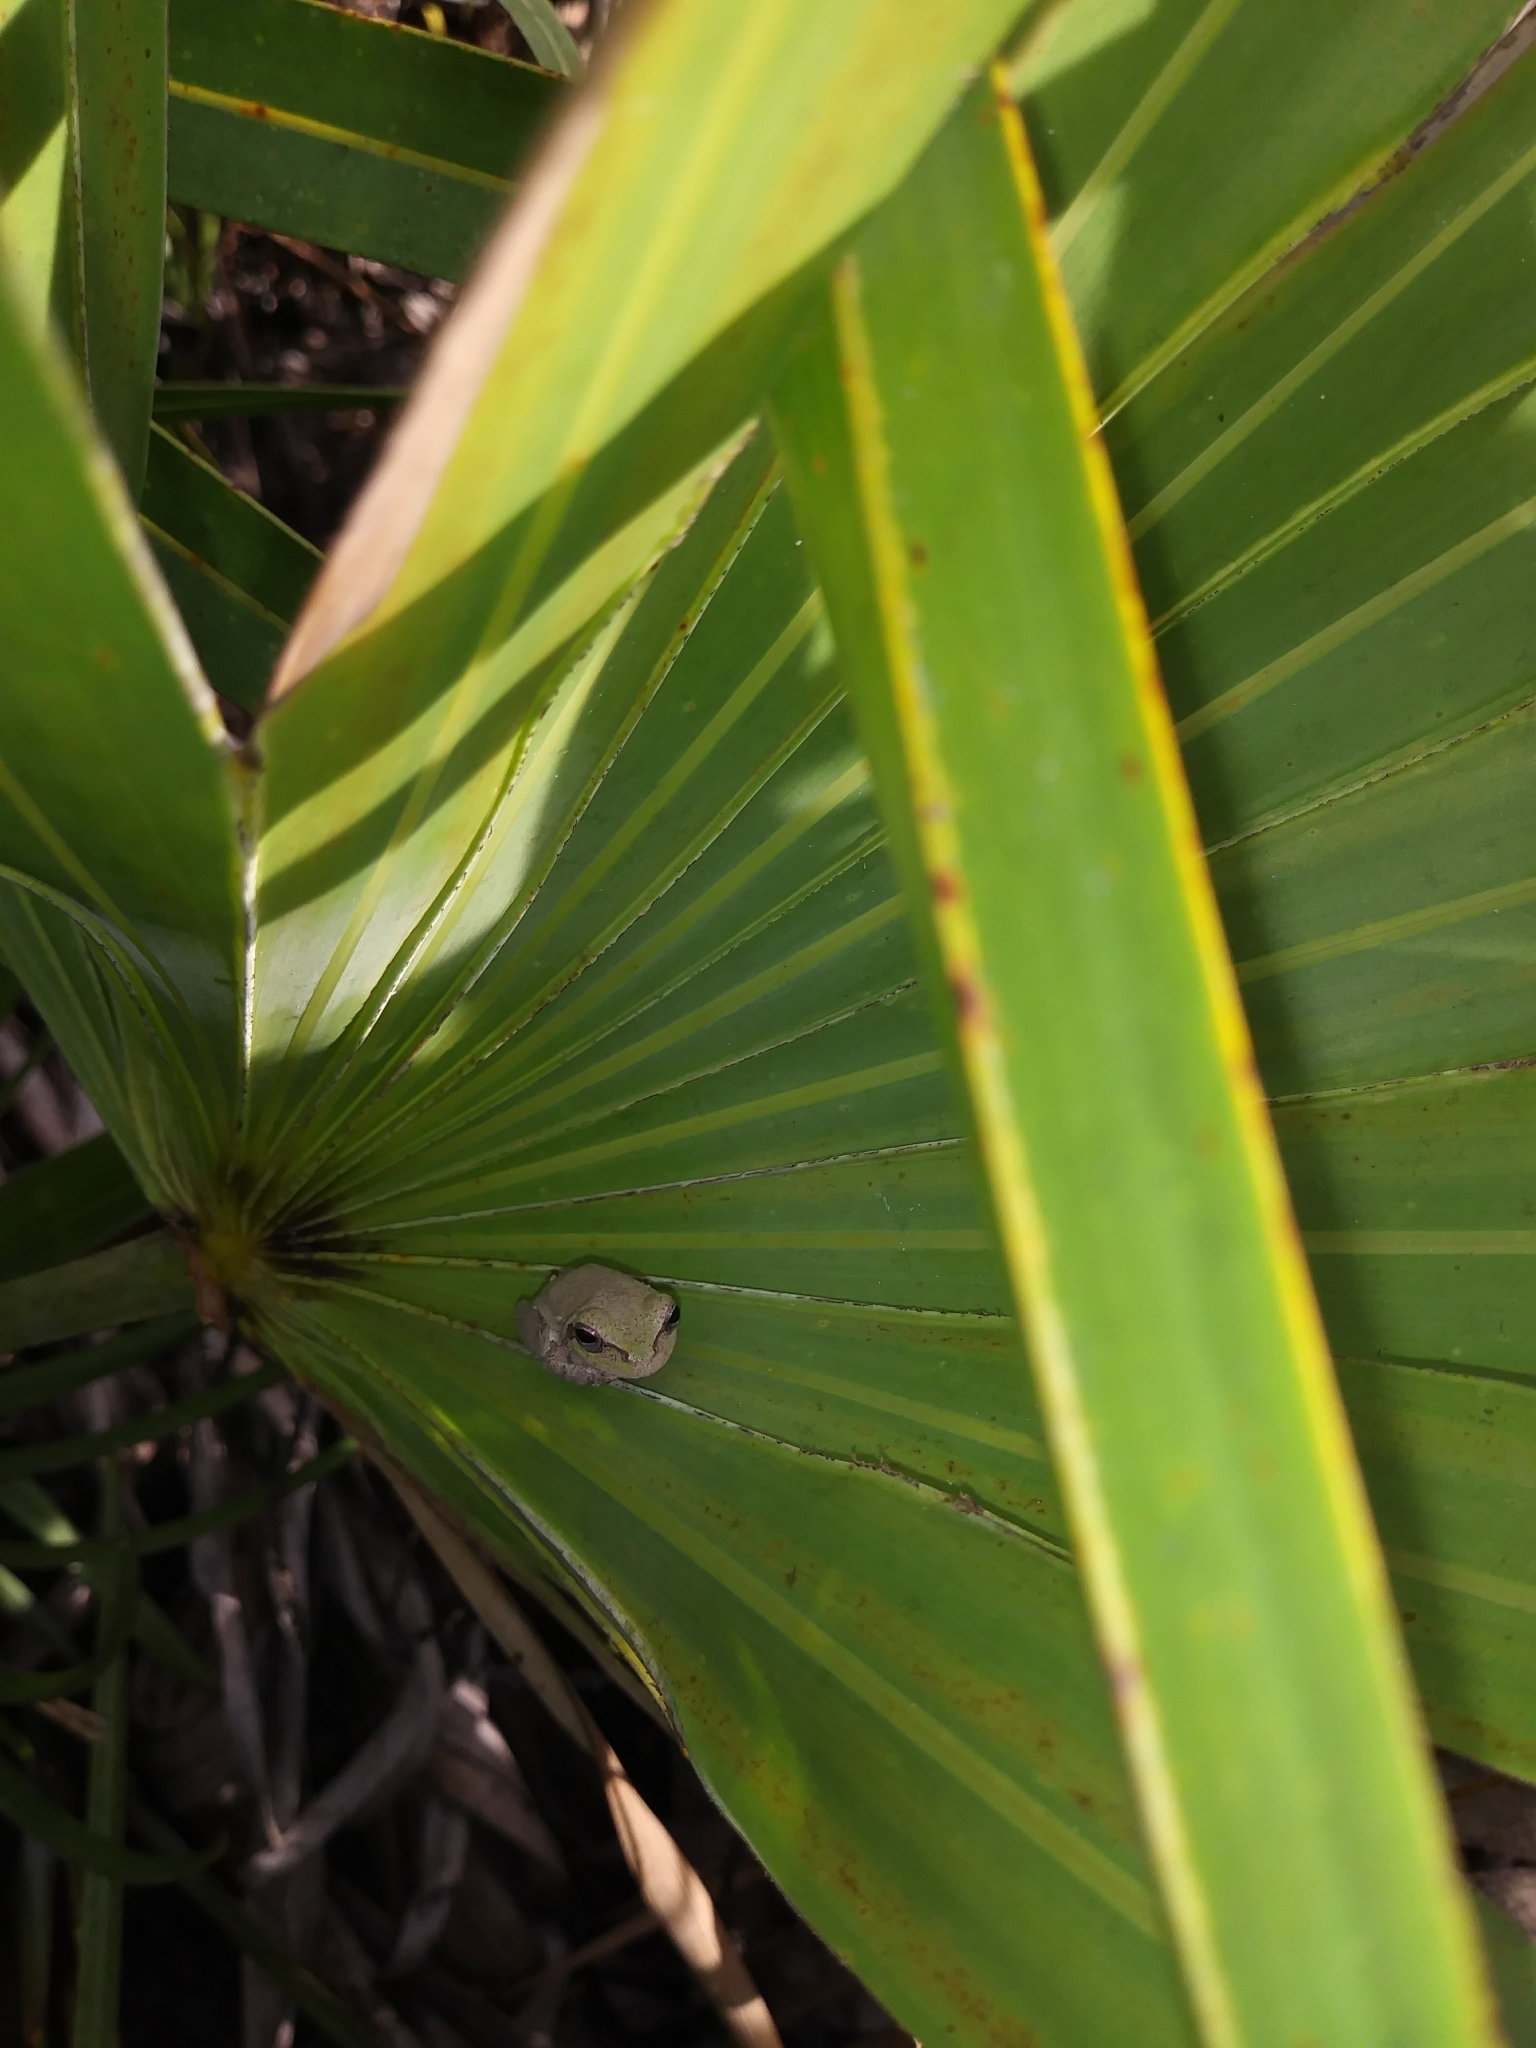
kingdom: Animalia
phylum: Chordata
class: Amphibia
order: Anura
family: Hylidae
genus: Hyla
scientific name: Hyla femoralis
